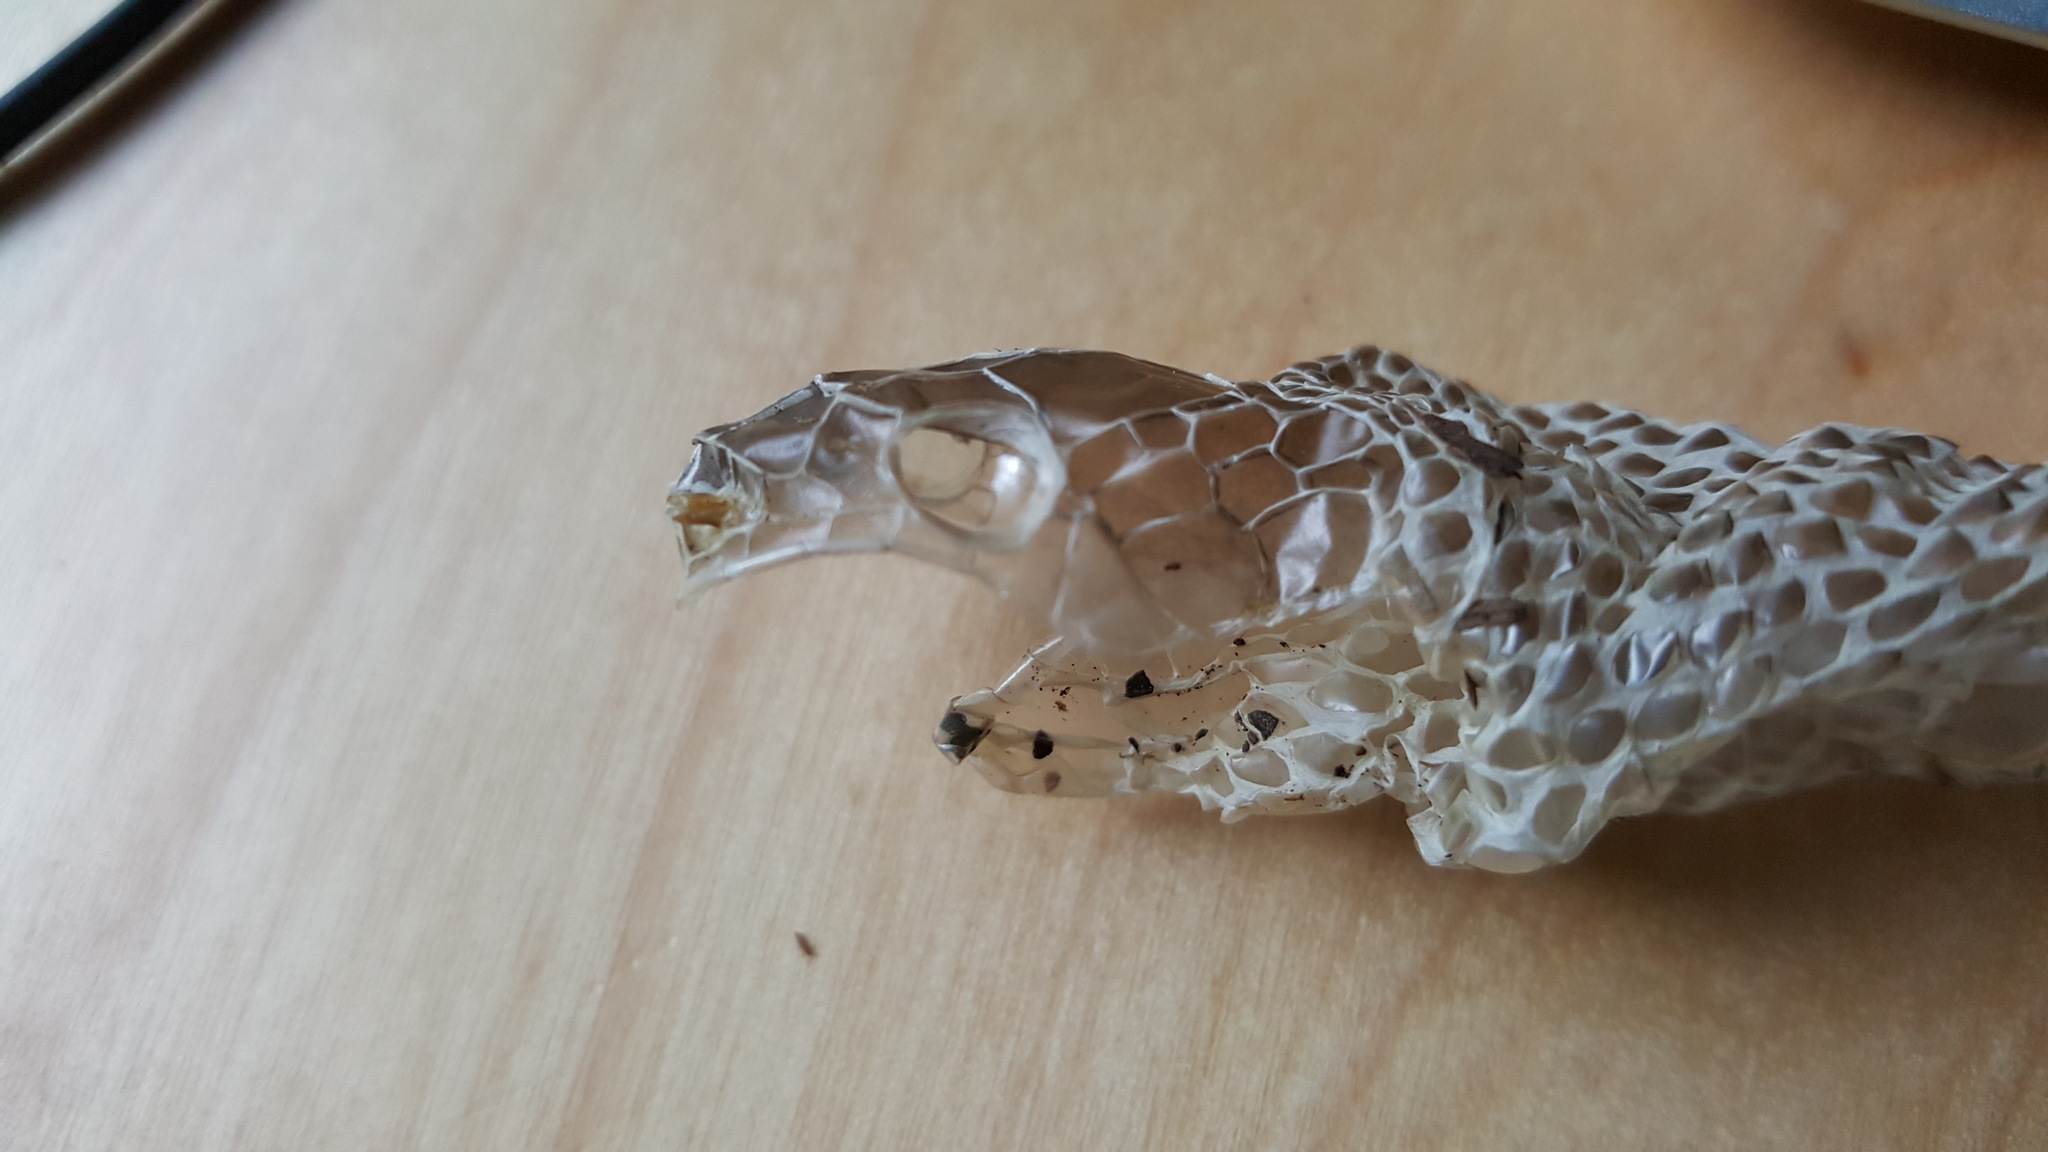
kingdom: Animalia
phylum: Chordata
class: Squamata
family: Colubridae
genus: Coluber
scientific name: Coluber constrictor
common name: Eastern racer
